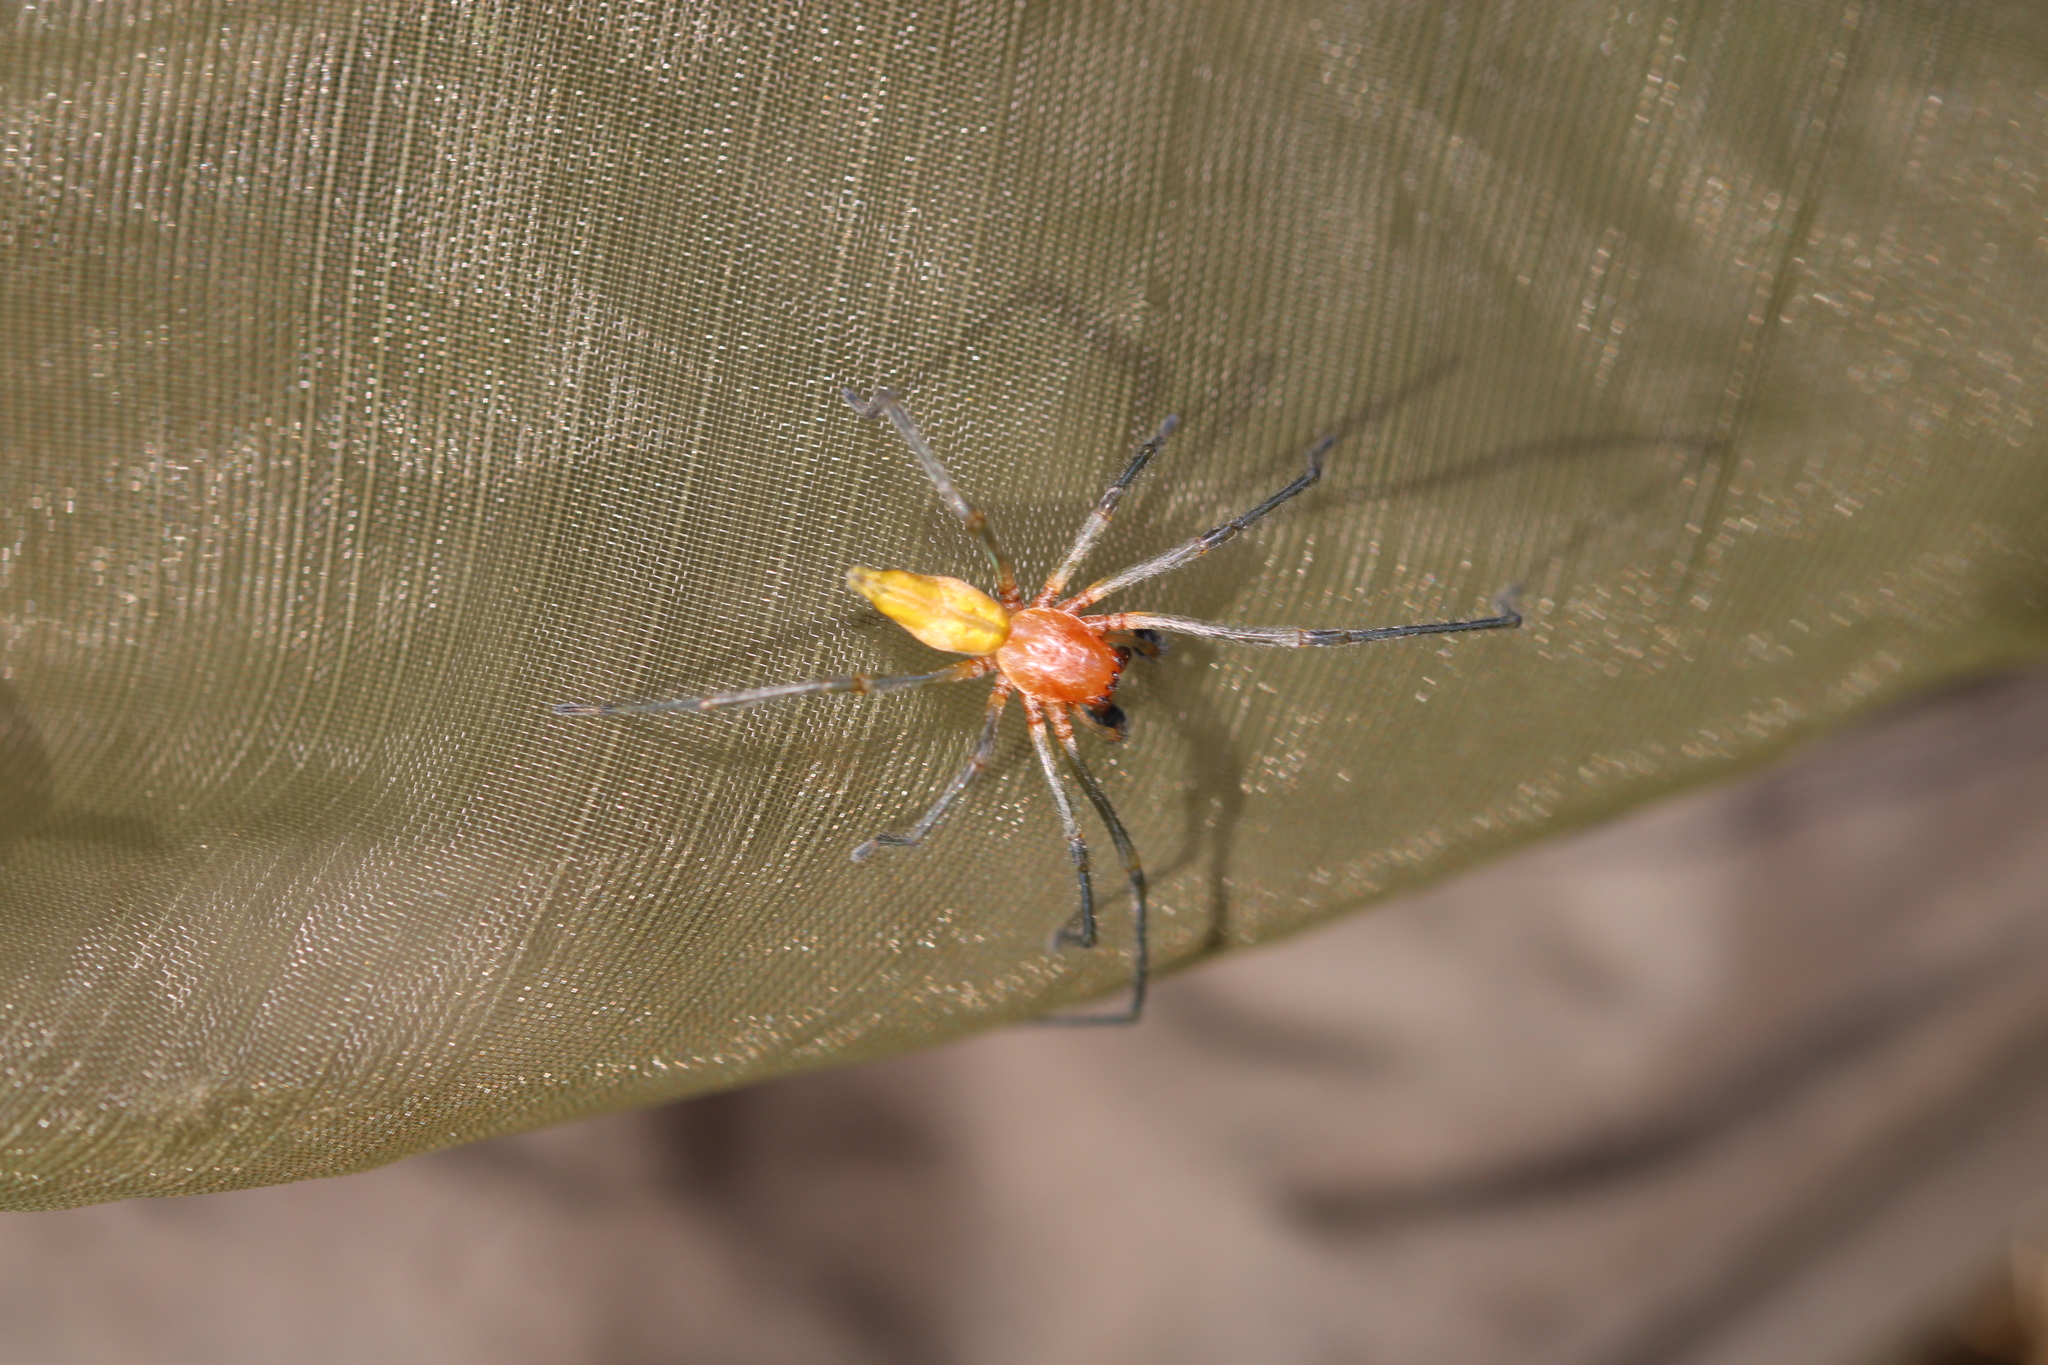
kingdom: Animalia
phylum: Arthropoda
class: Arachnida
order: Araneae
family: Cheiracanthiidae
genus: Cheiracanthium
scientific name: Cheiracanthium punctorium
